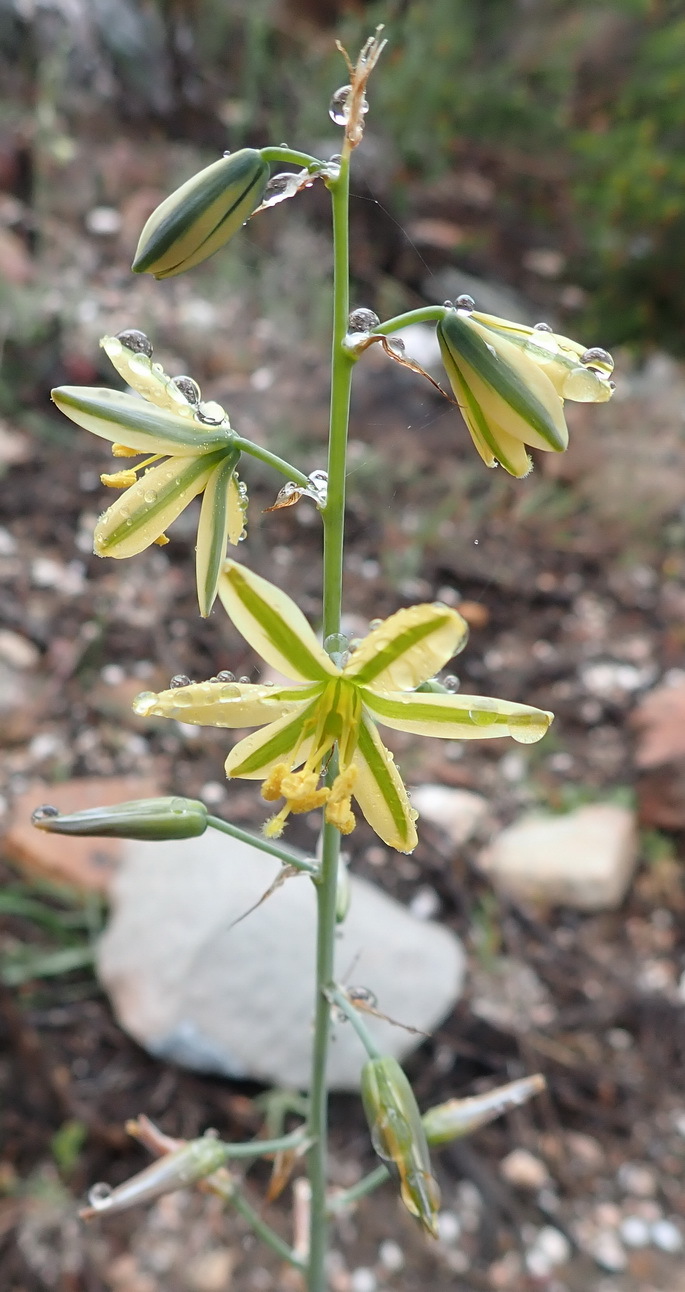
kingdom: Plantae
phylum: Tracheophyta
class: Liliopsida
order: Asparagales
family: Asparagaceae
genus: Albuca
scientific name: Albuca suaveolens
